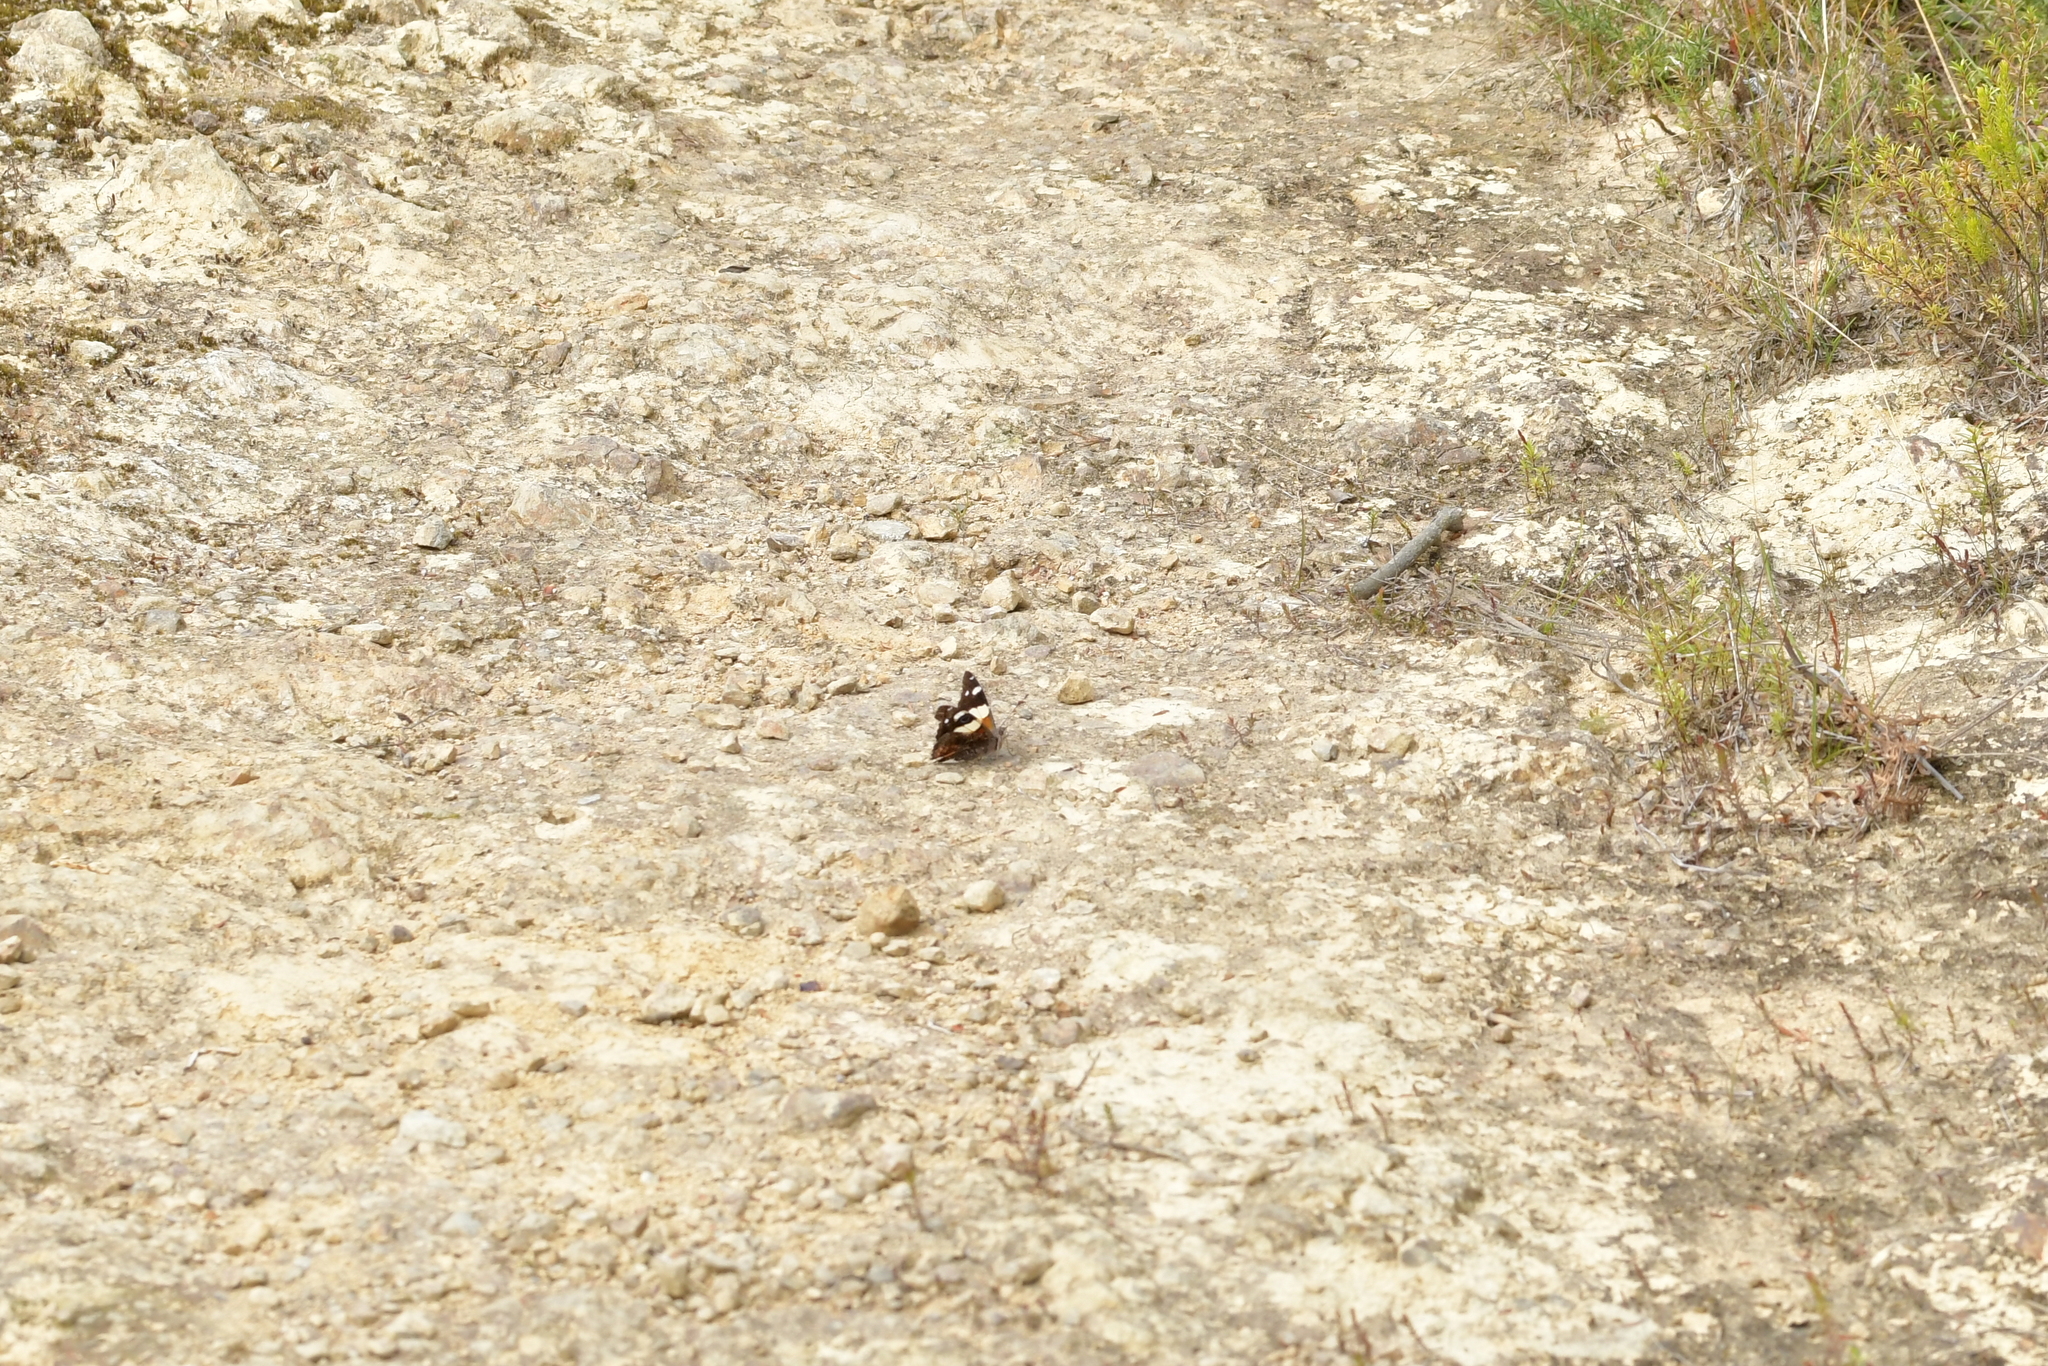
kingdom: Animalia
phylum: Arthropoda
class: Insecta
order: Lepidoptera
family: Nymphalidae
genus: Vanessa
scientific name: Vanessa itea
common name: Yellow admiral
